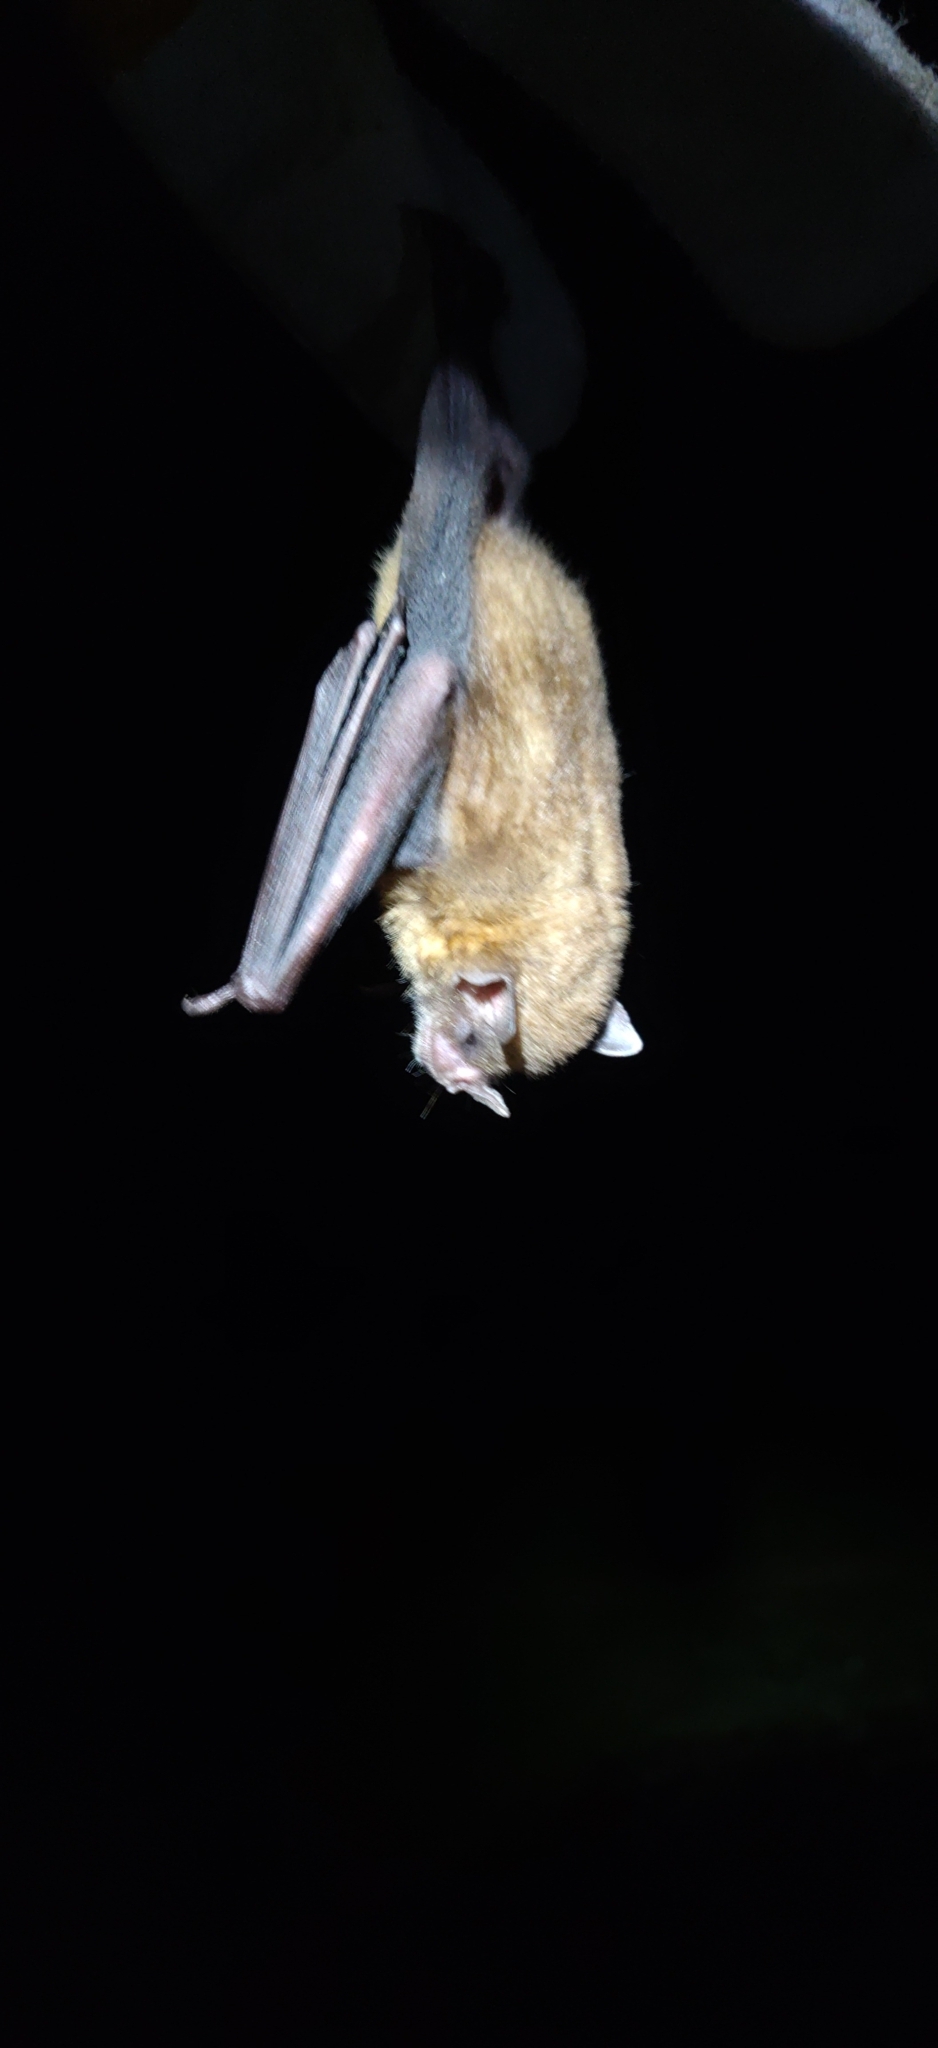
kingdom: Animalia
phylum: Chordata
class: Mammalia
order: Chiroptera
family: Phyllostomidae
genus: Sturnira
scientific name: Sturnira lilium
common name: Little yellow-shouldered bat
